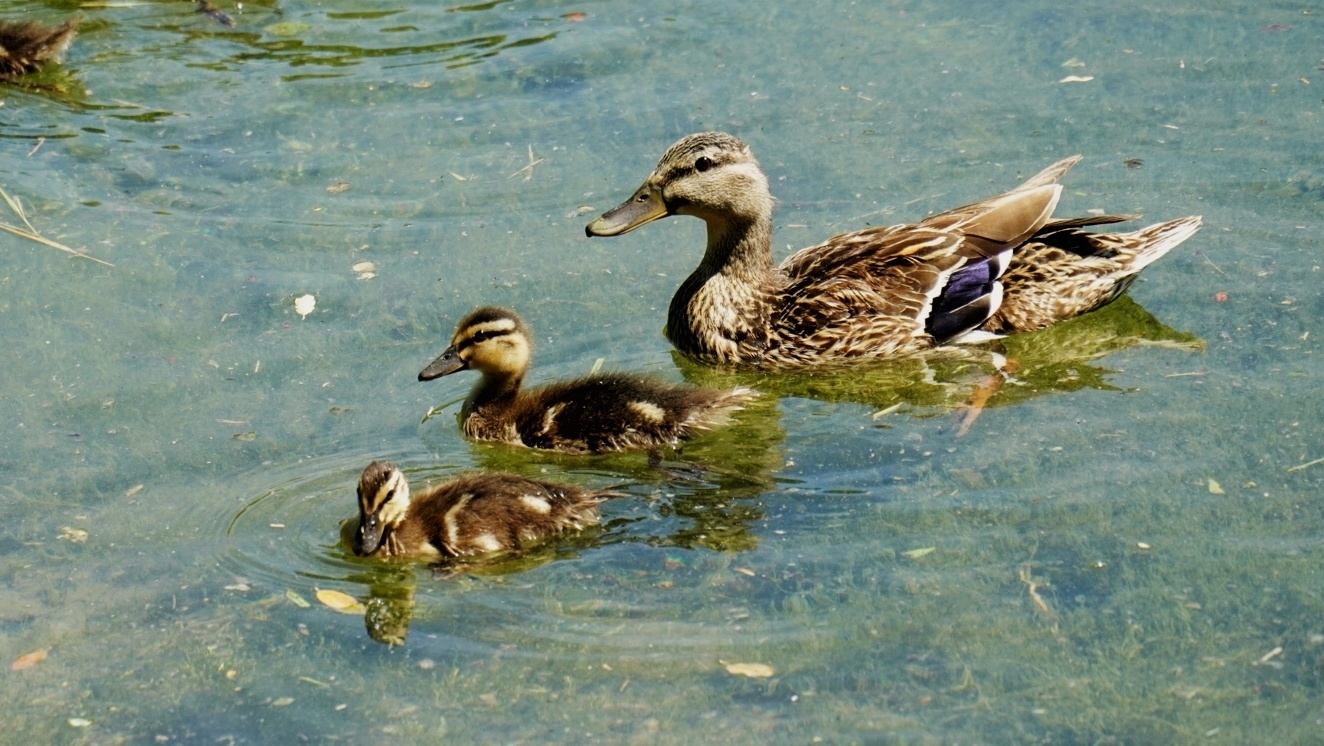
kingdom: Animalia
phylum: Chordata
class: Aves
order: Anseriformes
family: Anatidae
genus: Anas
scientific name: Anas platyrhynchos
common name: Mallard
